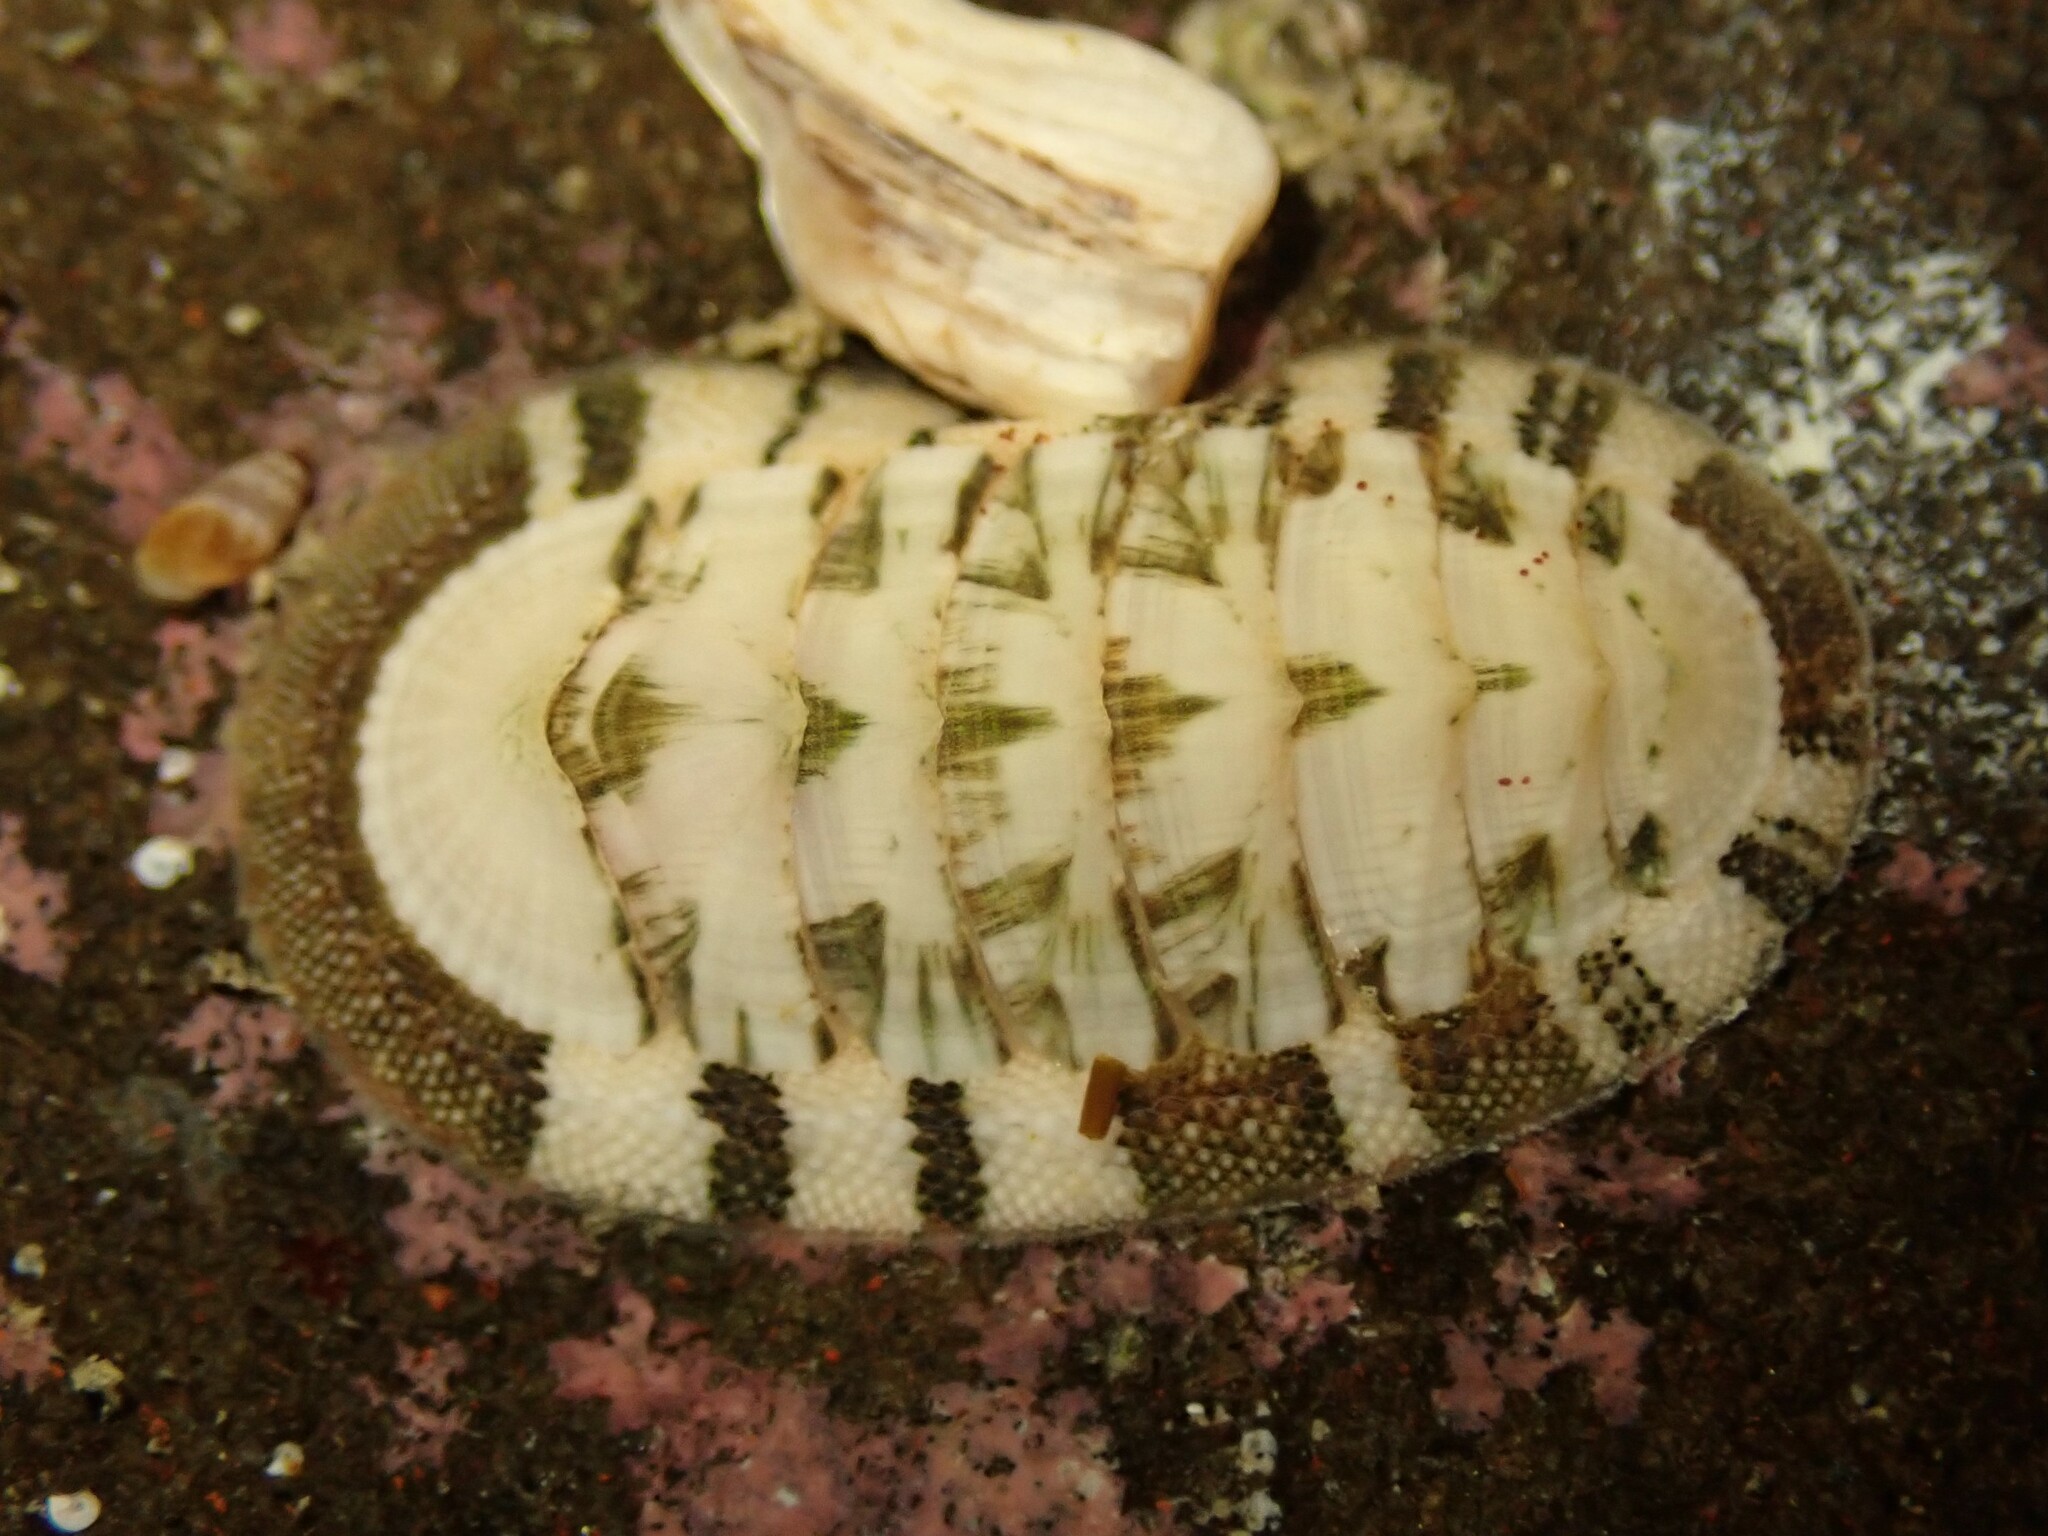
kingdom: Animalia
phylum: Mollusca
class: Polyplacophora
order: Chitonida
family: Chitonidae
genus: Rhyssoplax
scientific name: Rhyssoplax aerea
